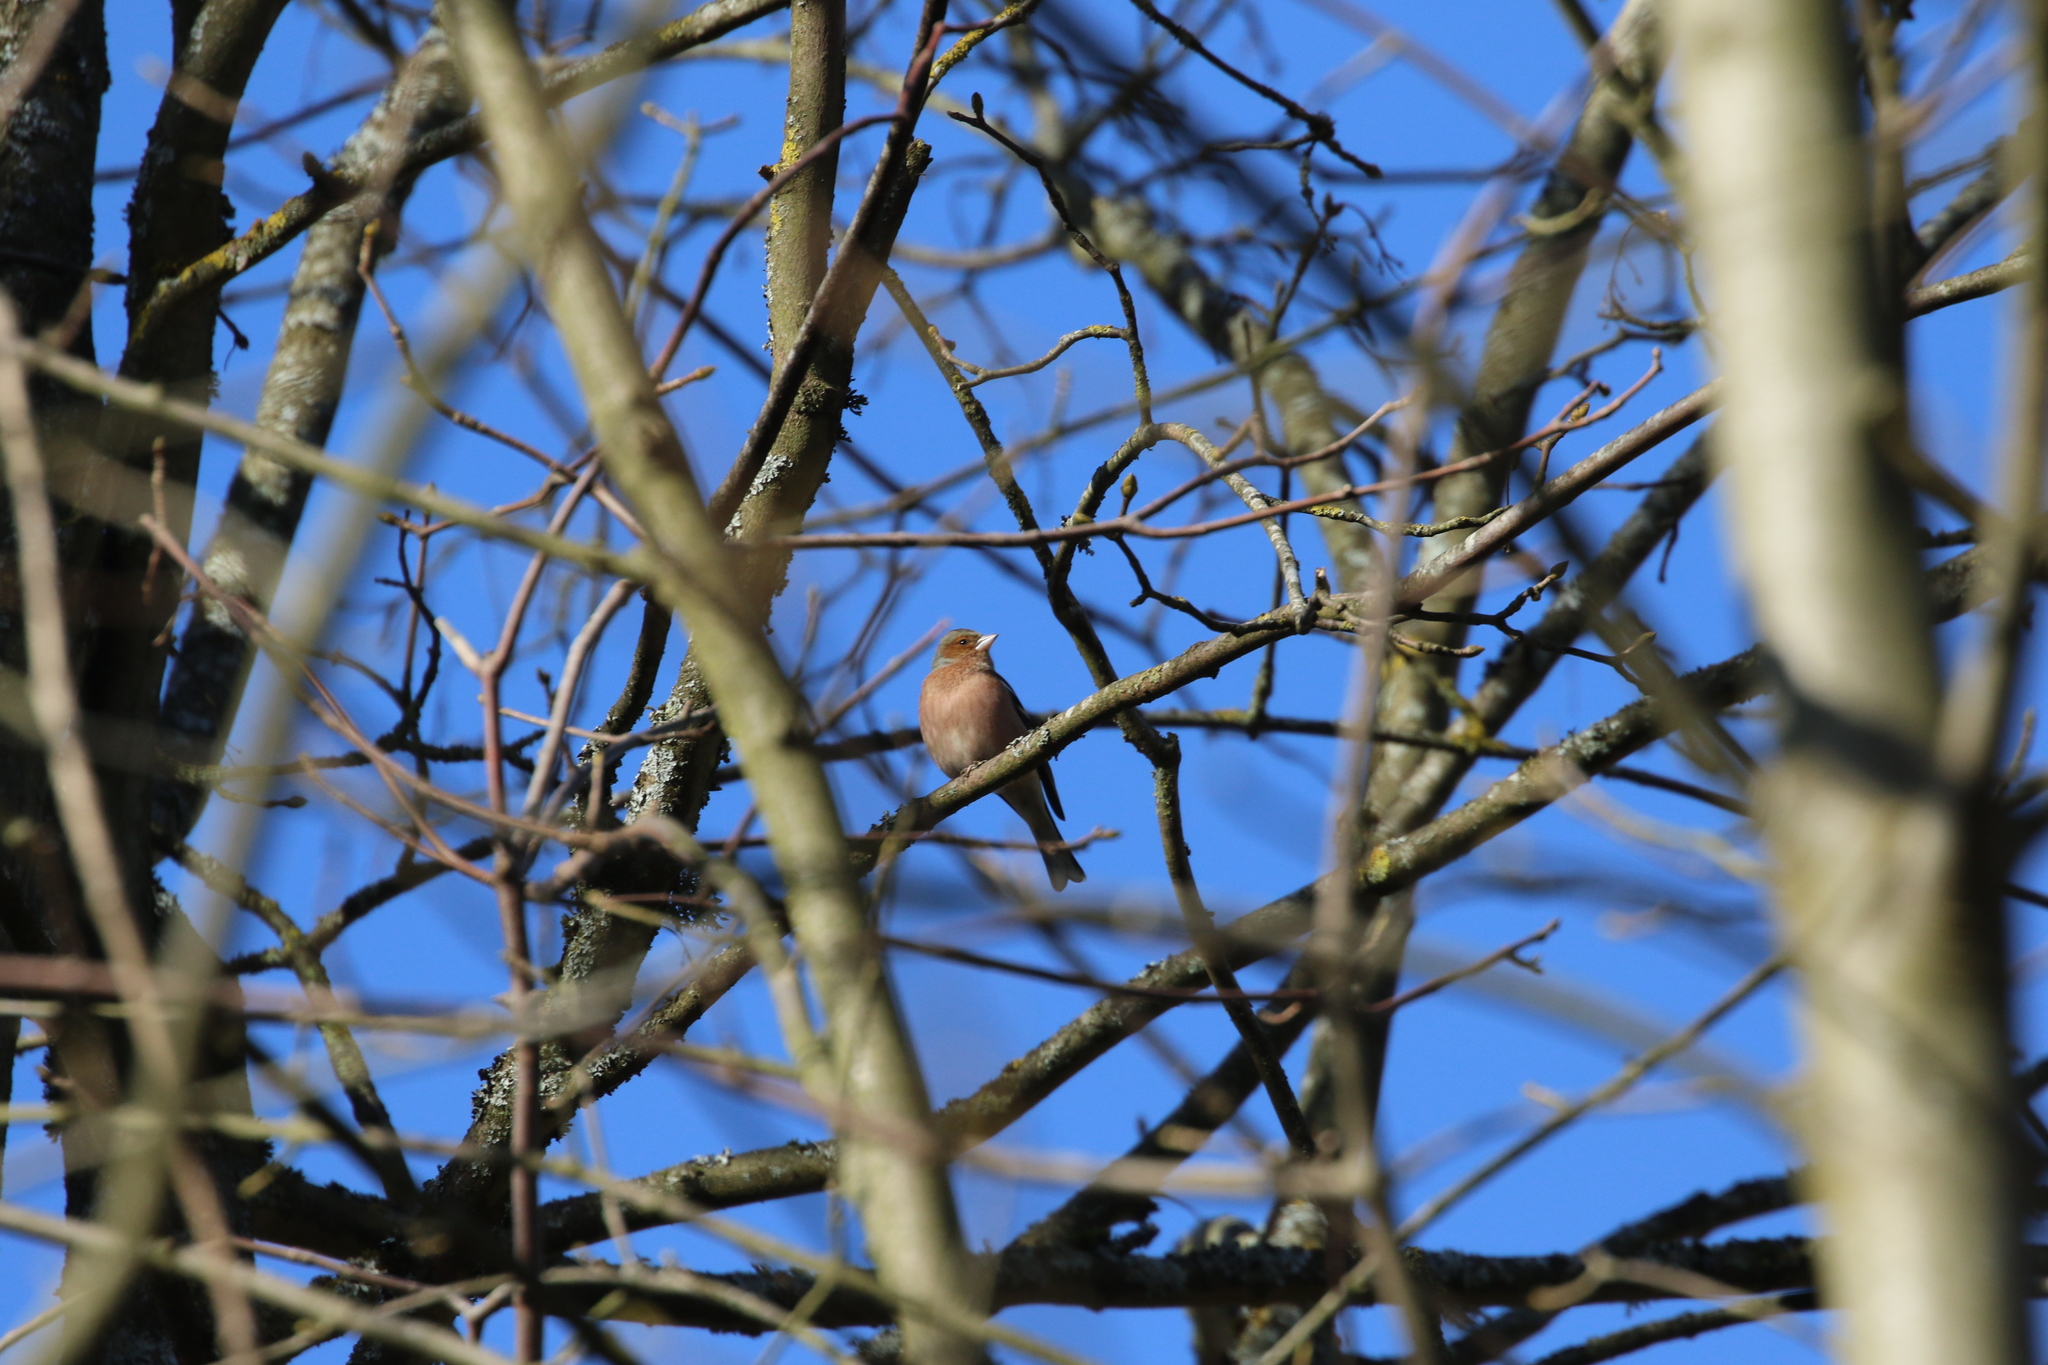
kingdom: Animalia
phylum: Chordata
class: Aves
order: Passeriformes
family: Fringillidae
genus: Fringilla
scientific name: Fringilla coelebs
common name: Common chaffinch
